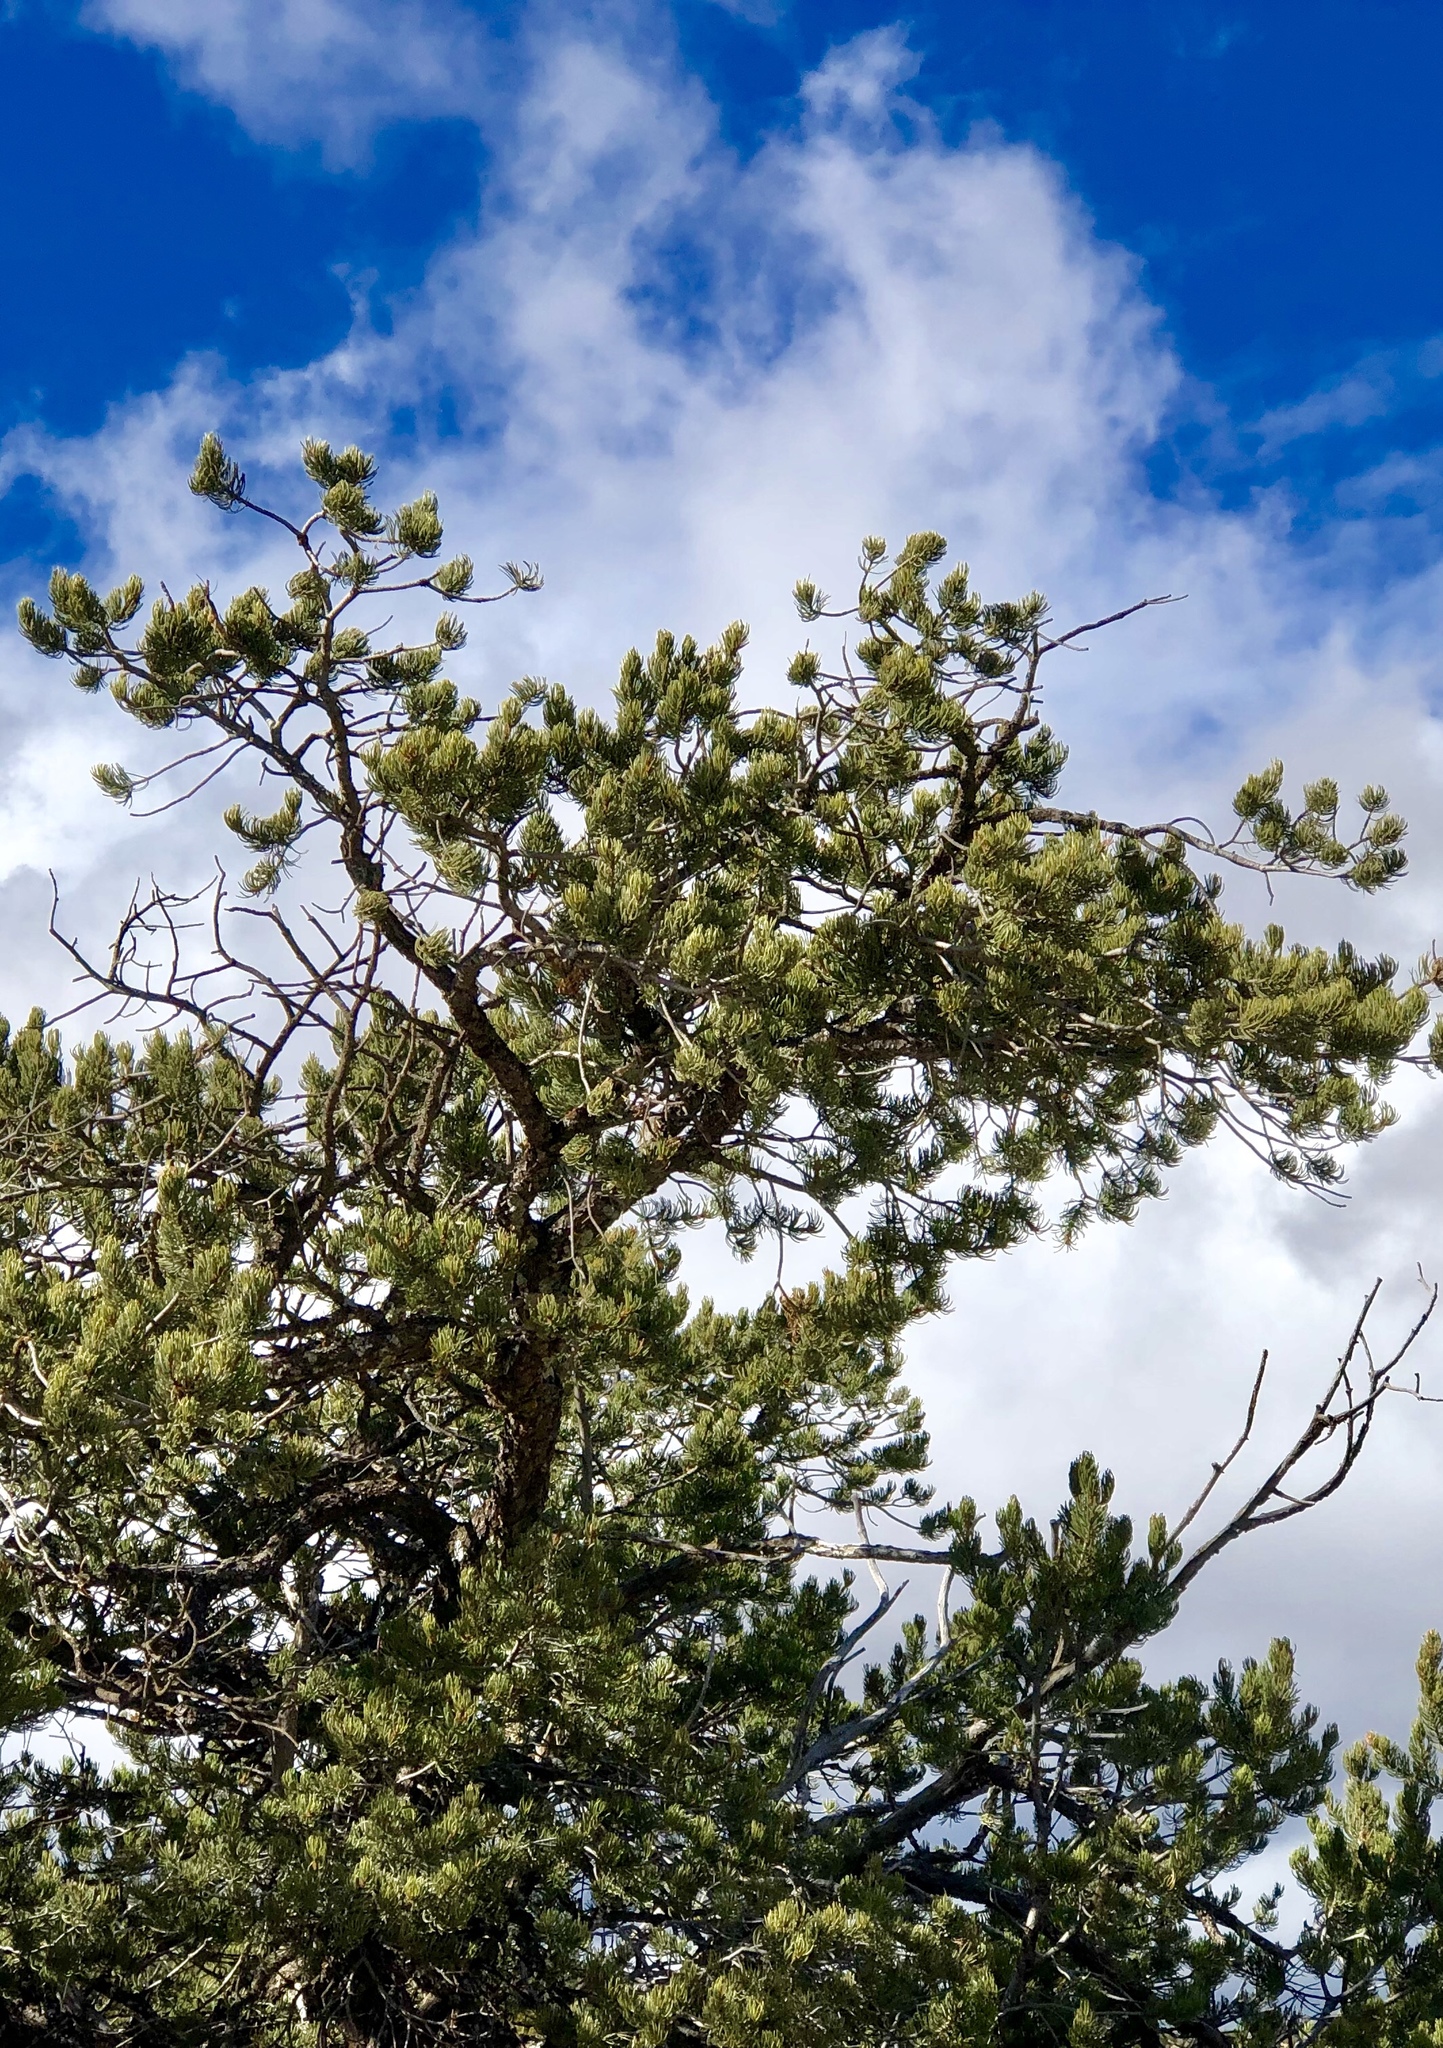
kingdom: Plantae
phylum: Tracheophyta
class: Pinopsida
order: Pinales
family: Pinaceae
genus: Pinus
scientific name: Pinus edulis
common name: Colorado pinyon
